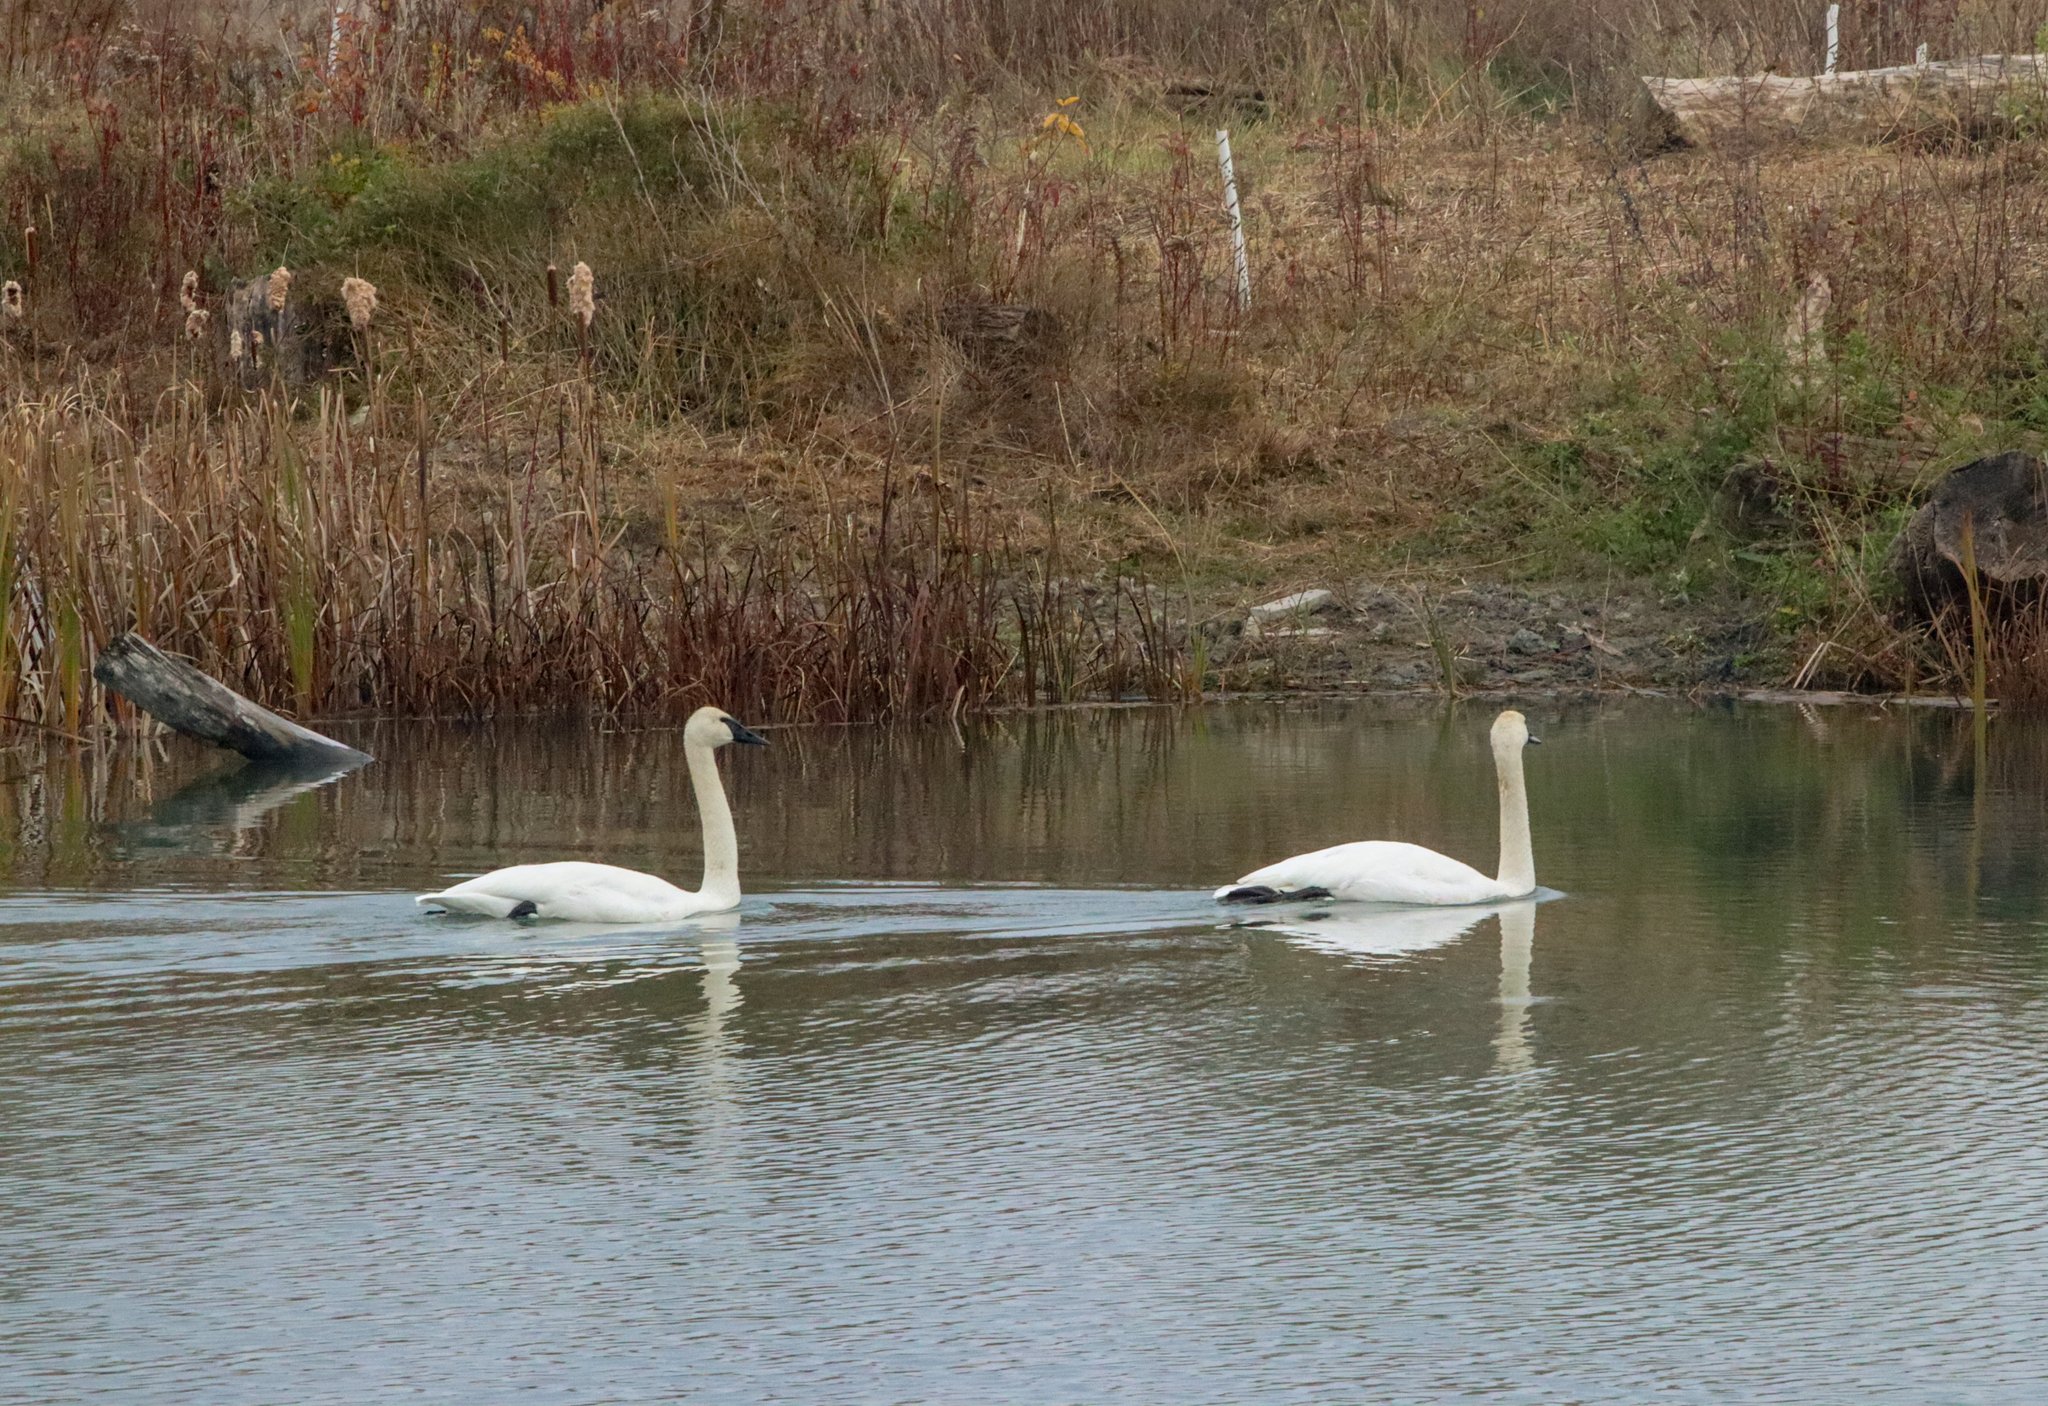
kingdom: Animalia
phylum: Chordata
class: Aves
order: Anseriformes
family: Anatidae
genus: Cygnus
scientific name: Cygnus buccinator
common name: Trumpeter swan
